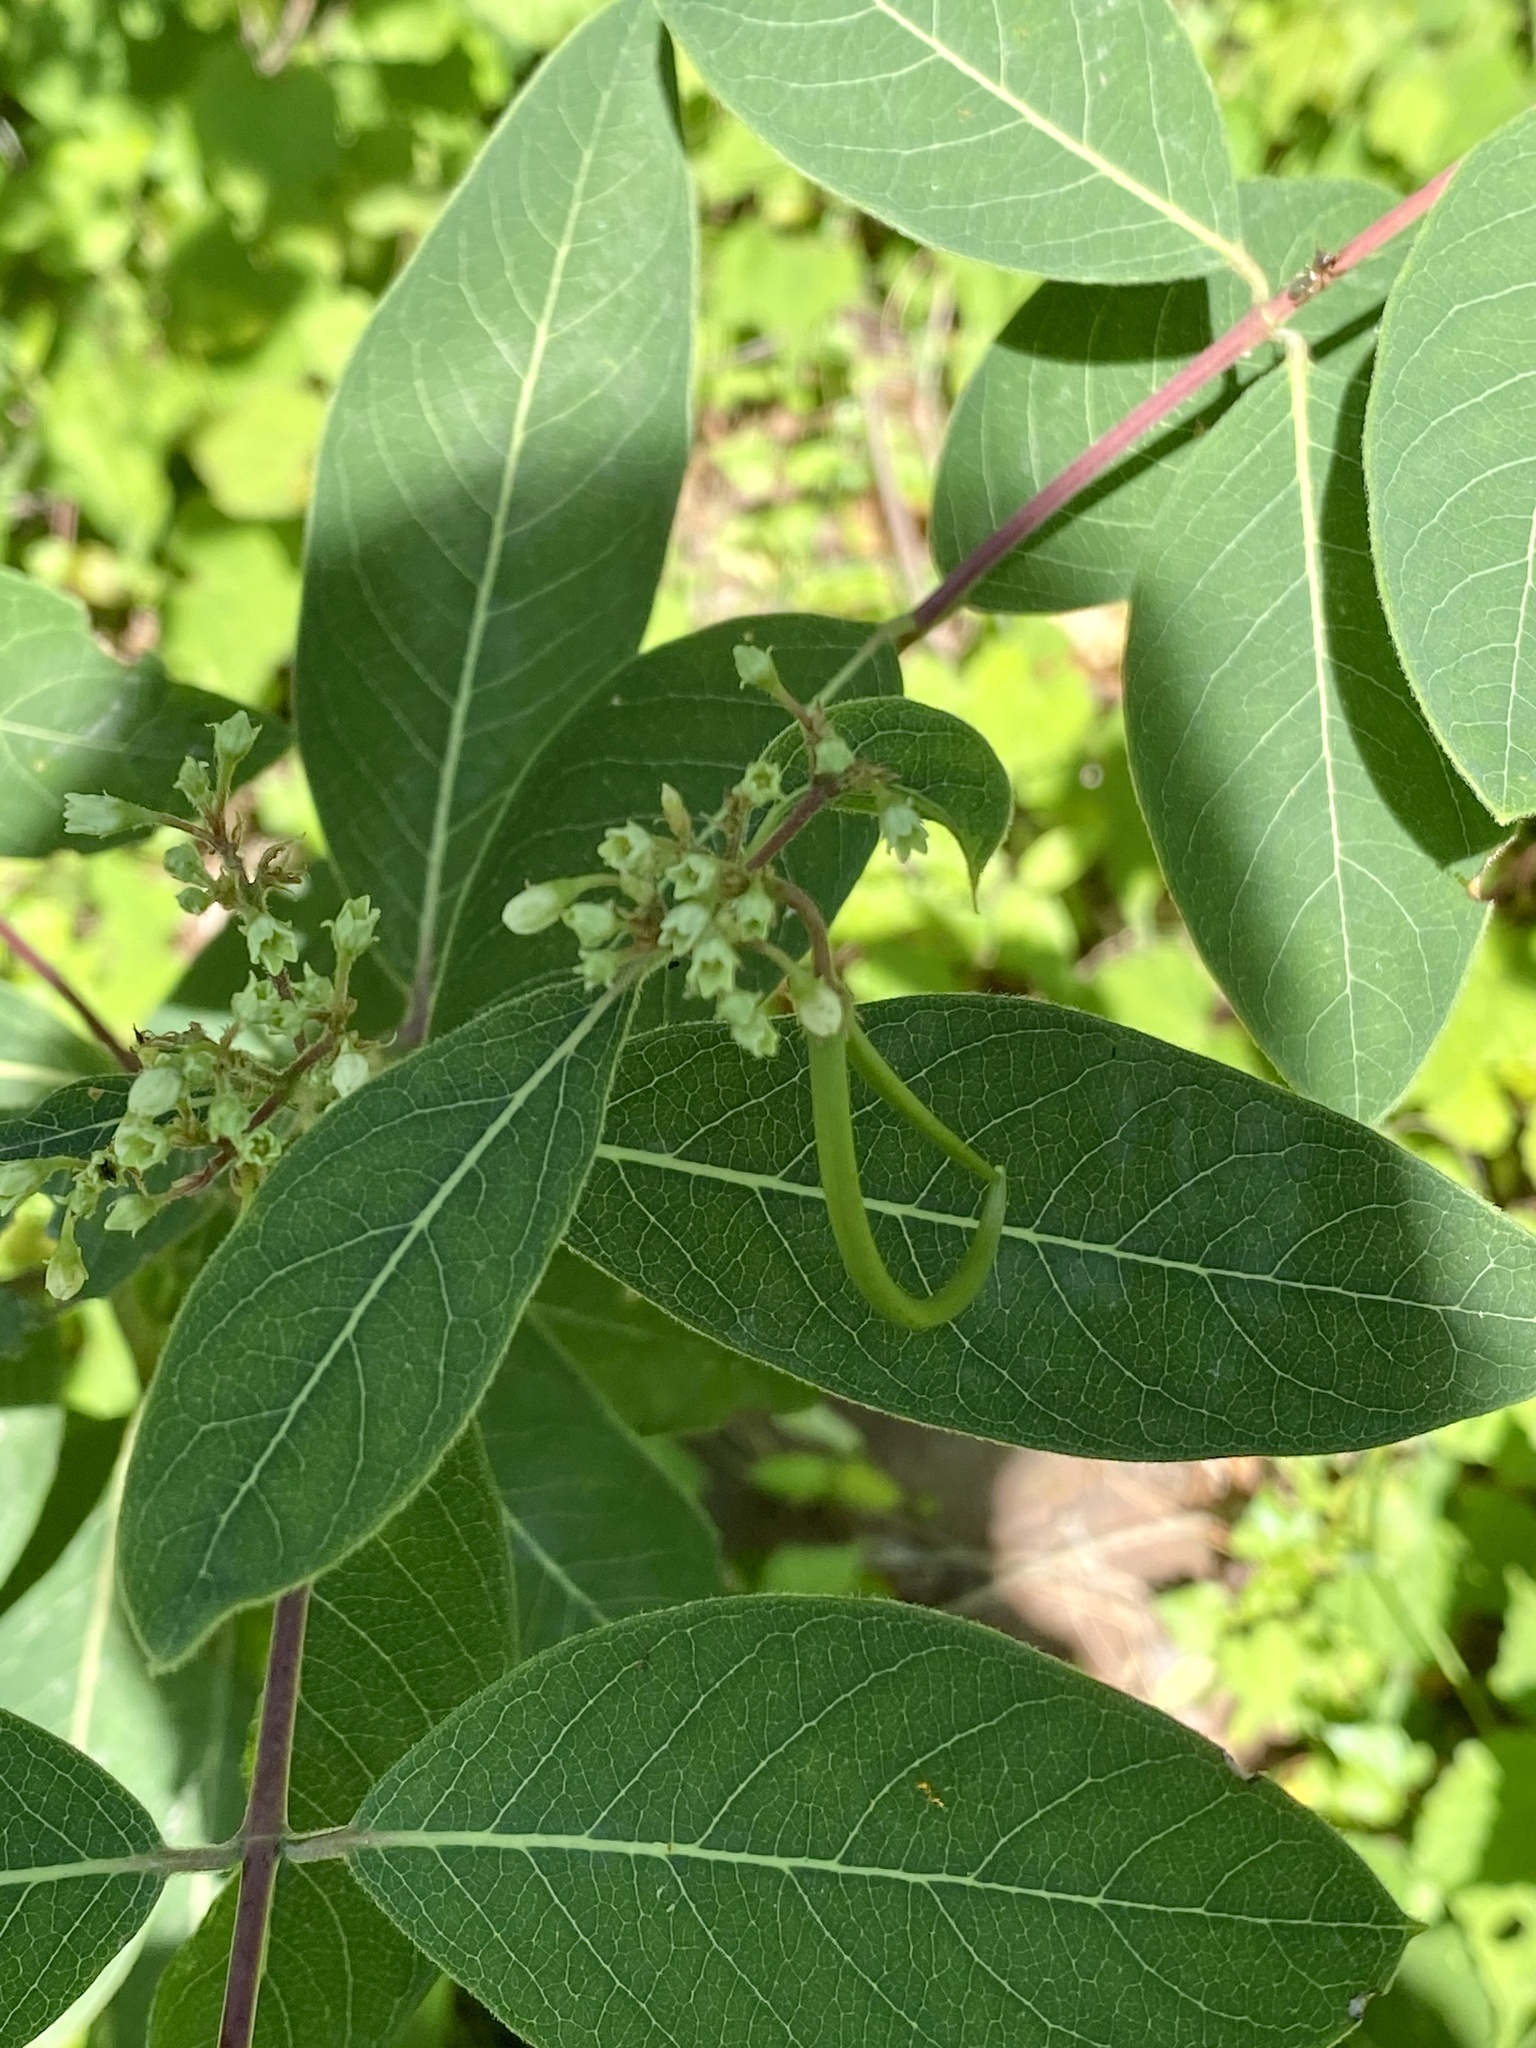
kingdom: Plantae
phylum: Tracheophyta
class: Magnoliopsida
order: Gentianales
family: Apocynaceae
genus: Apocynum
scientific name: Apocynum cannabinum
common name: Hemp dogbane
